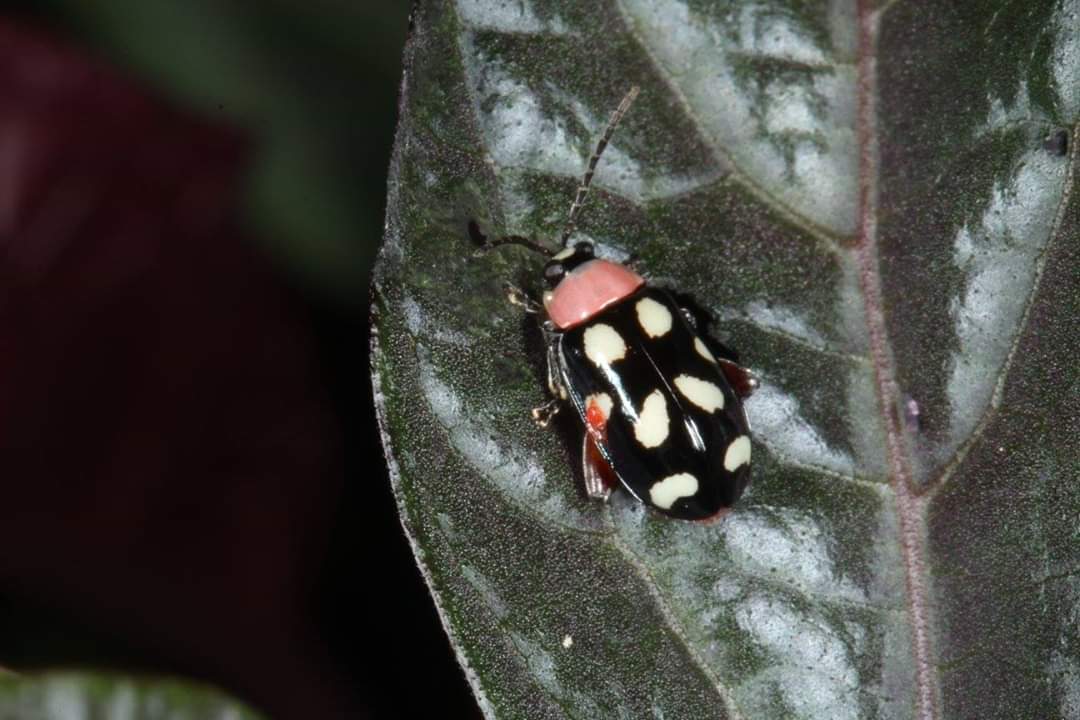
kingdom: Animalia
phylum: Arthropoda
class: Insecta
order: Coleoptera
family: Chrysomelidae
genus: Omophoita
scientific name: Omophoita cyanipennis
